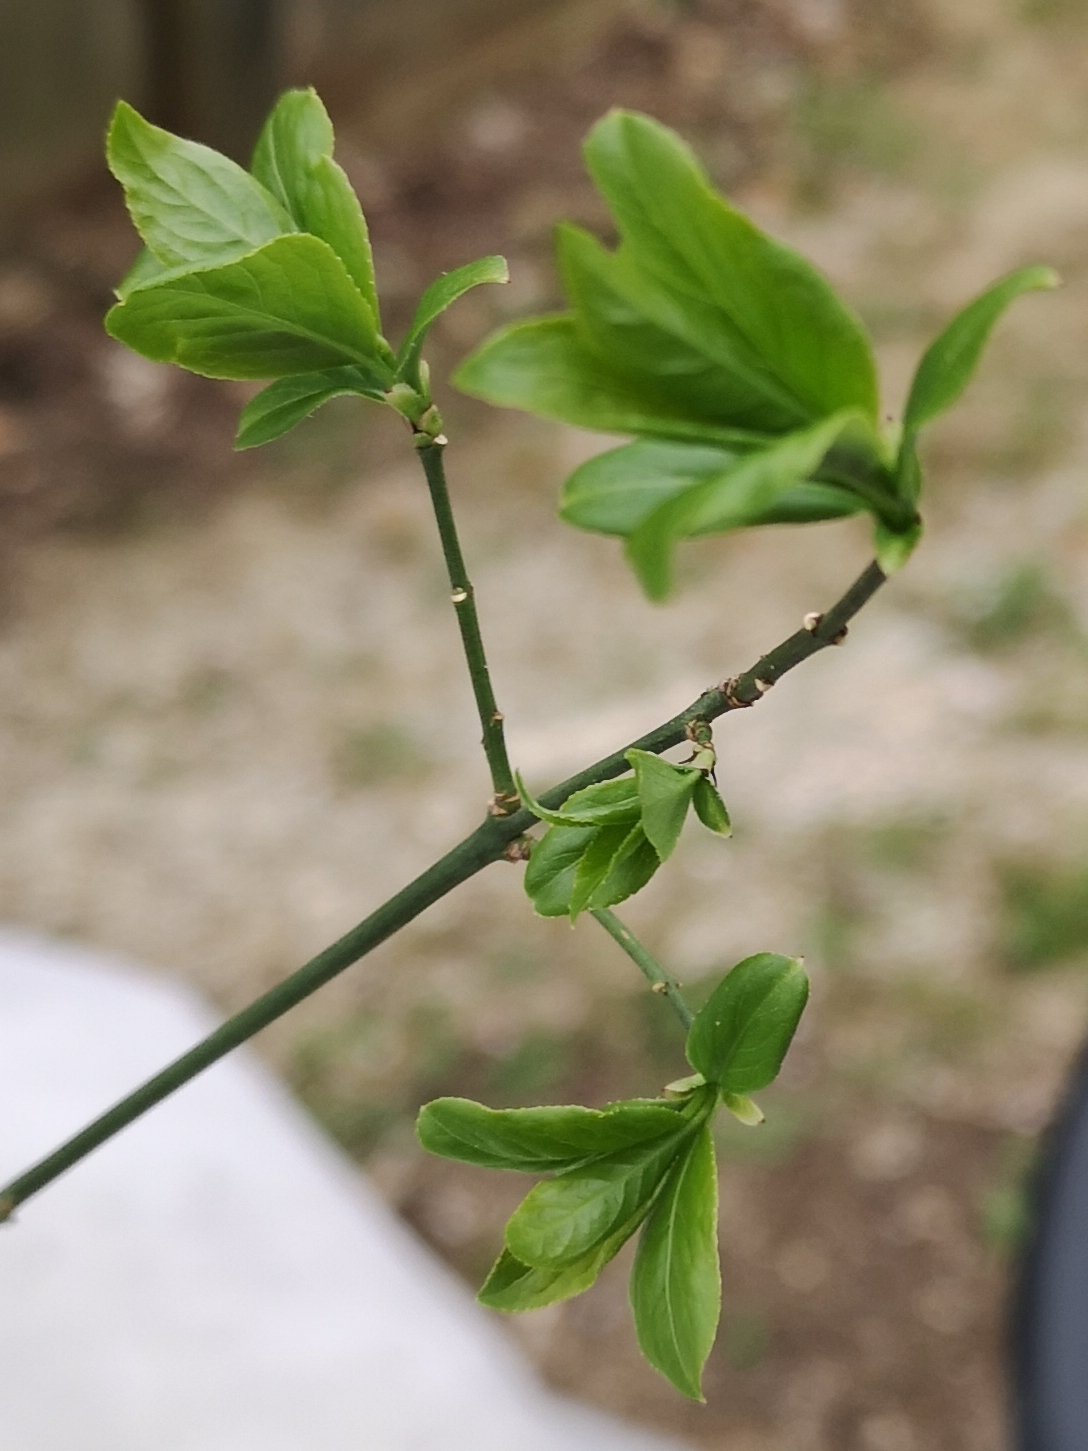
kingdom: Plantae
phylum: Tracheophyta
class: Magnoliopsida
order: Celastrales
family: Celastraceae
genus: Euonymus
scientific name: Euonymus europaeus
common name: Spindle
